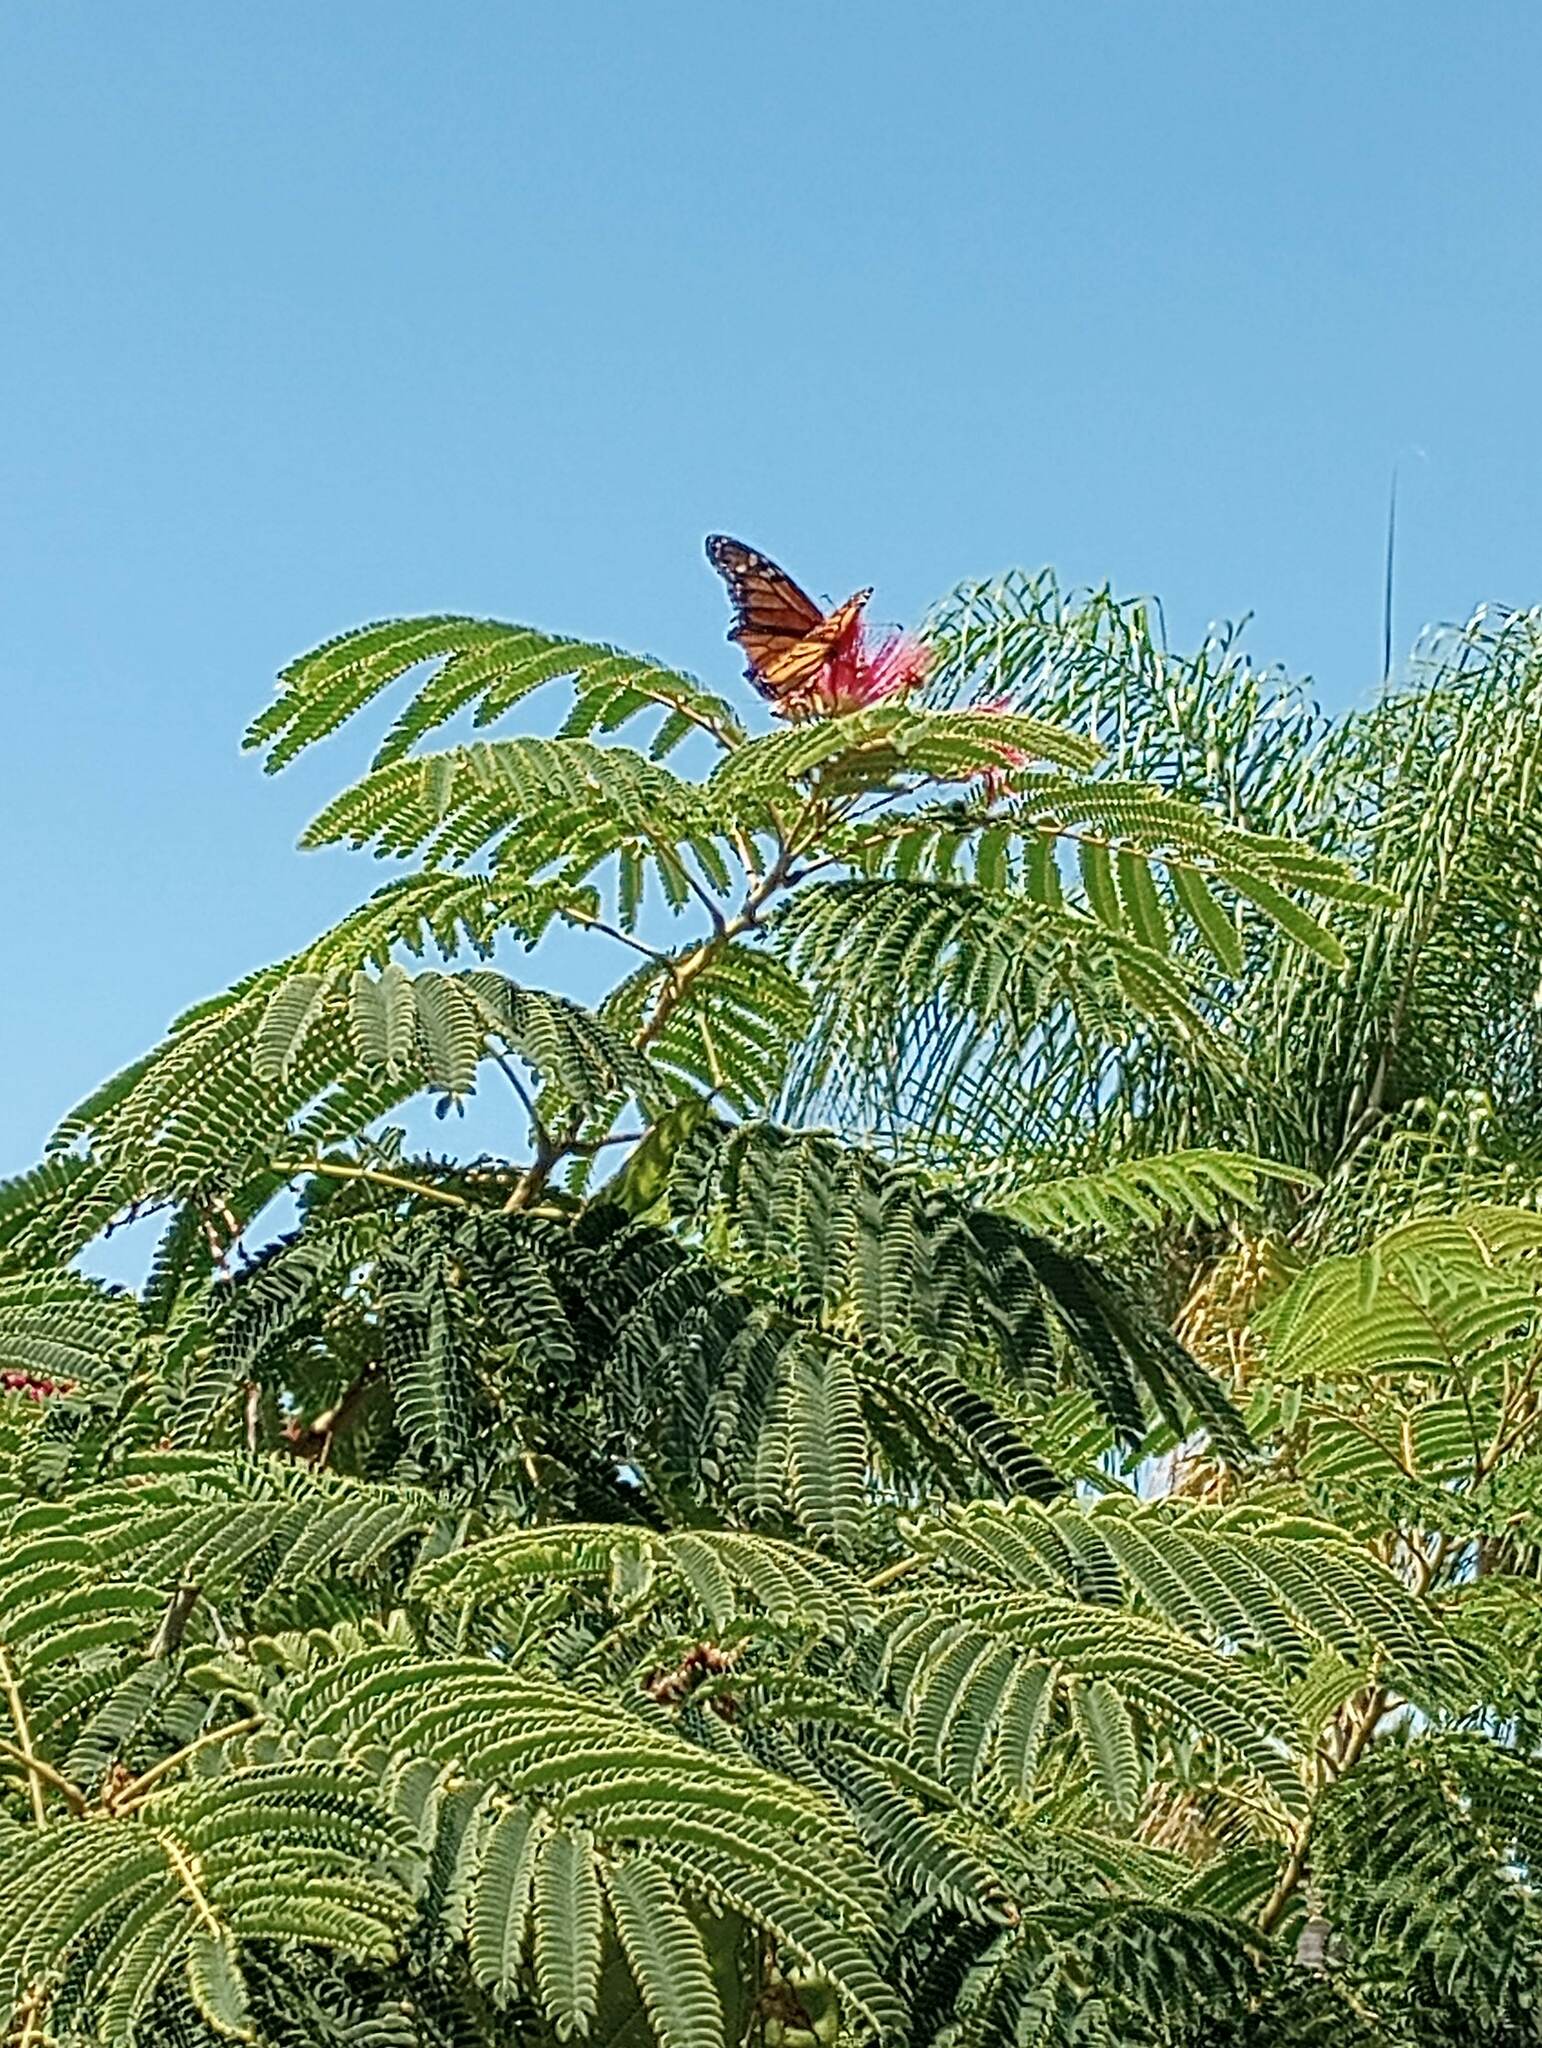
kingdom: Animalia
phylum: Arthropoda
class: Insecta
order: Lepidoptera
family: Nymphalidae
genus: Danaus
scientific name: Danaus plexippus
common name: Monarch
